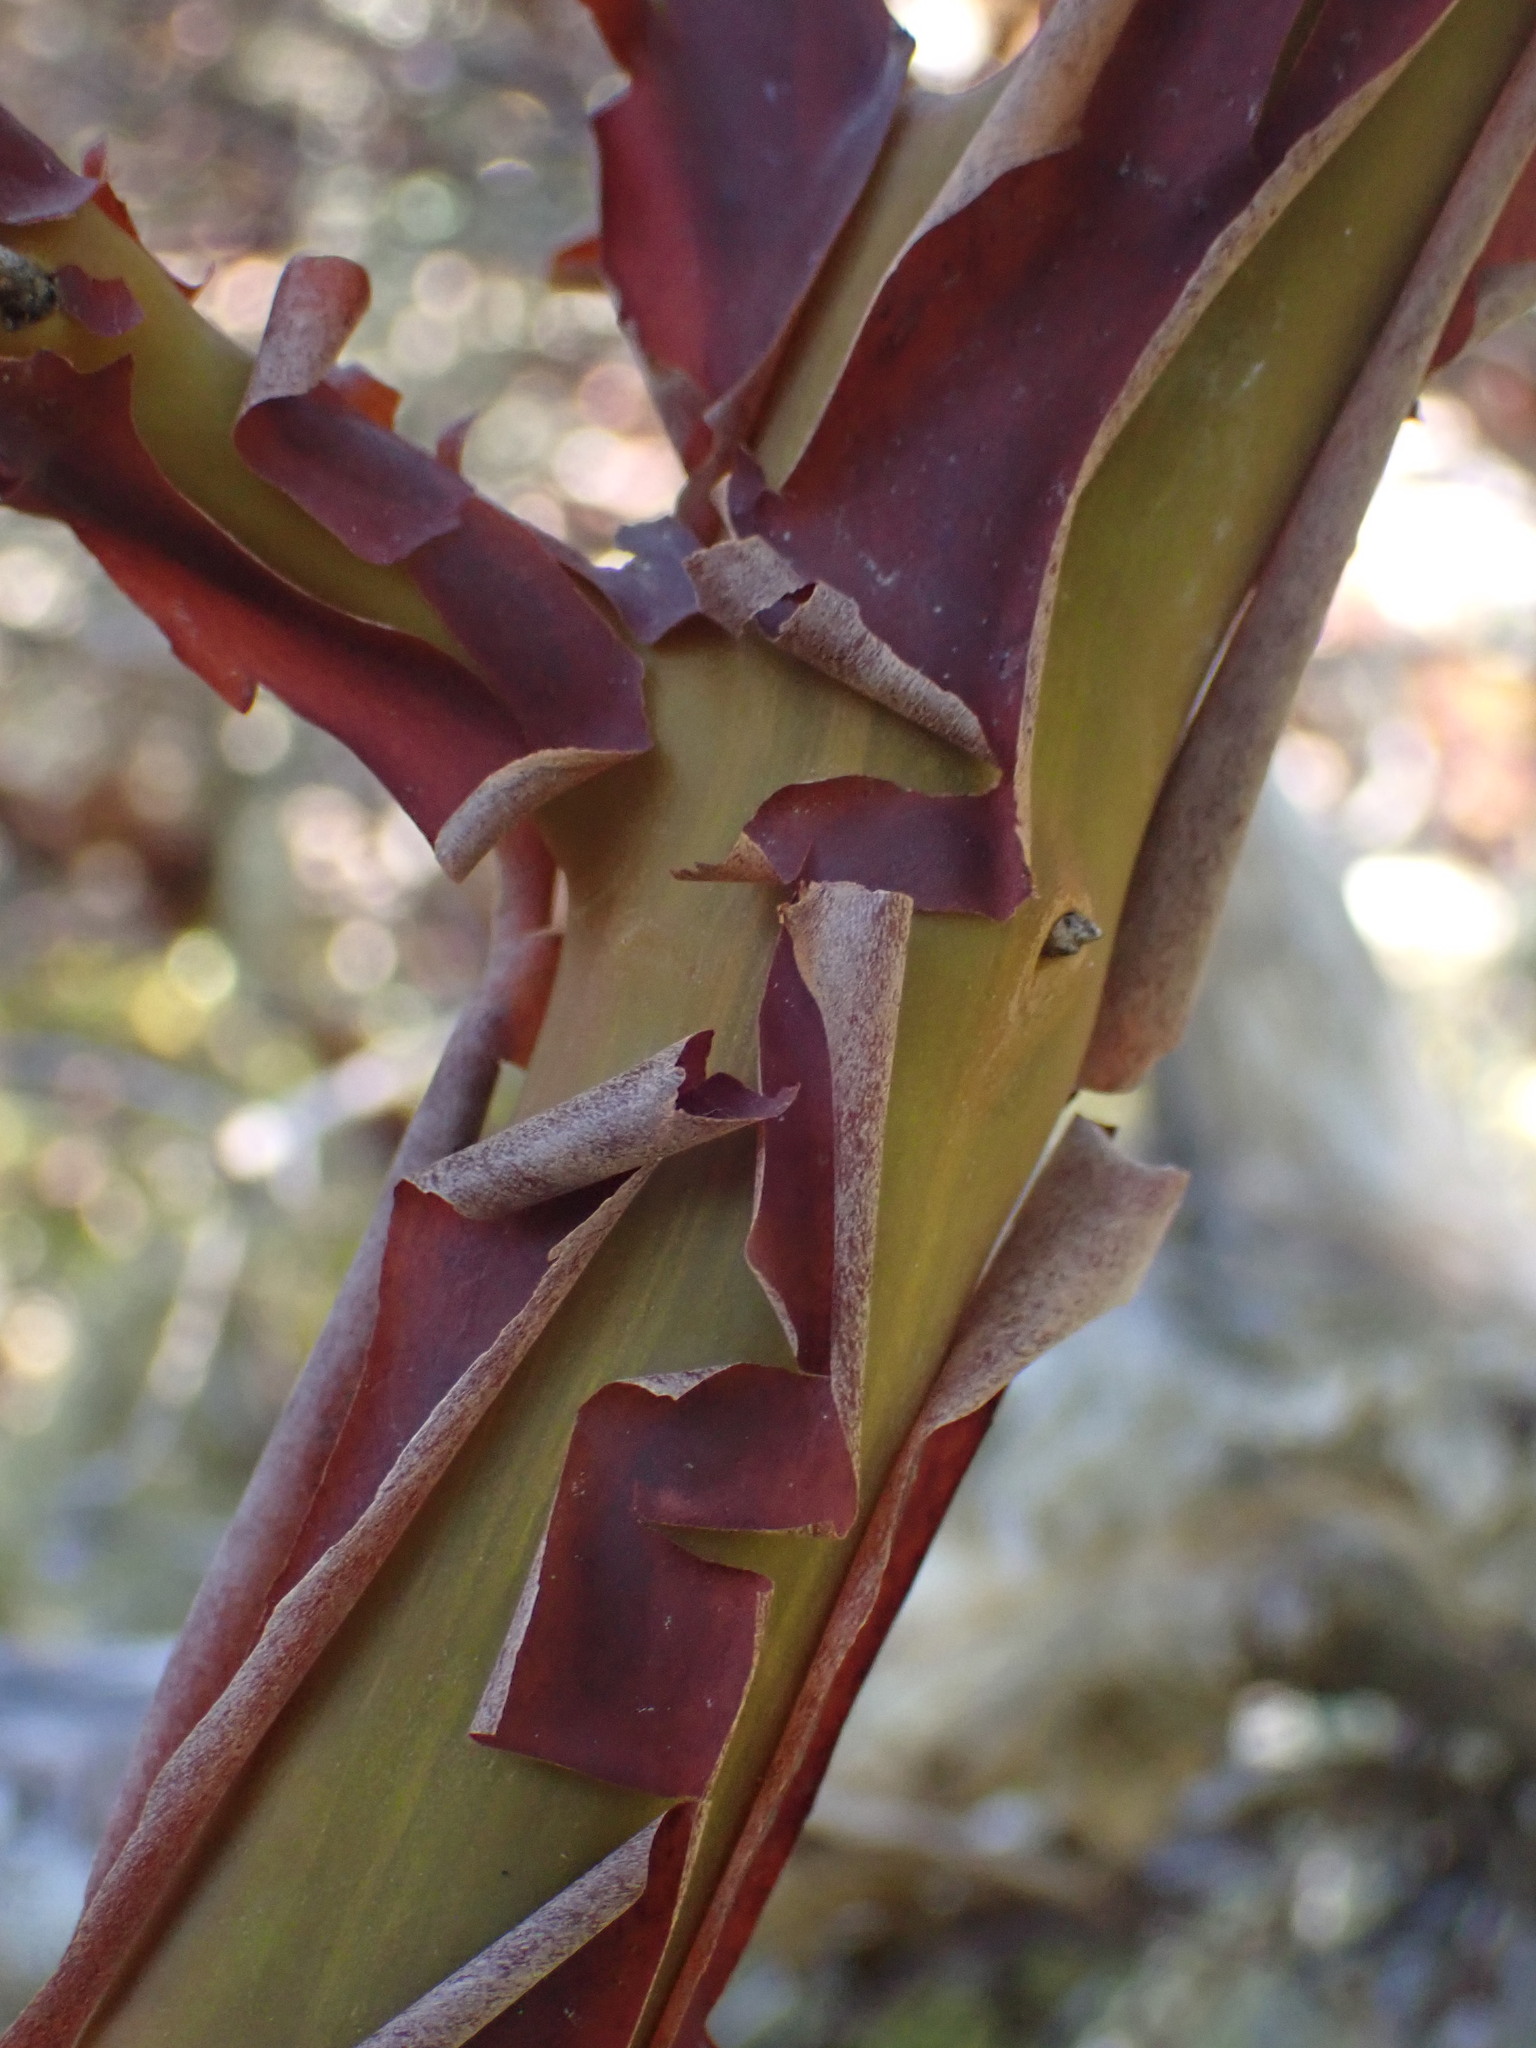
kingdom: Plantae
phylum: Tracheophyta
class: Magnoliopsida
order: Ericales
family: Ericaceae
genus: Arctostaphylos
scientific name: Arctostaphylos columbiana
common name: Bristly bearberry
